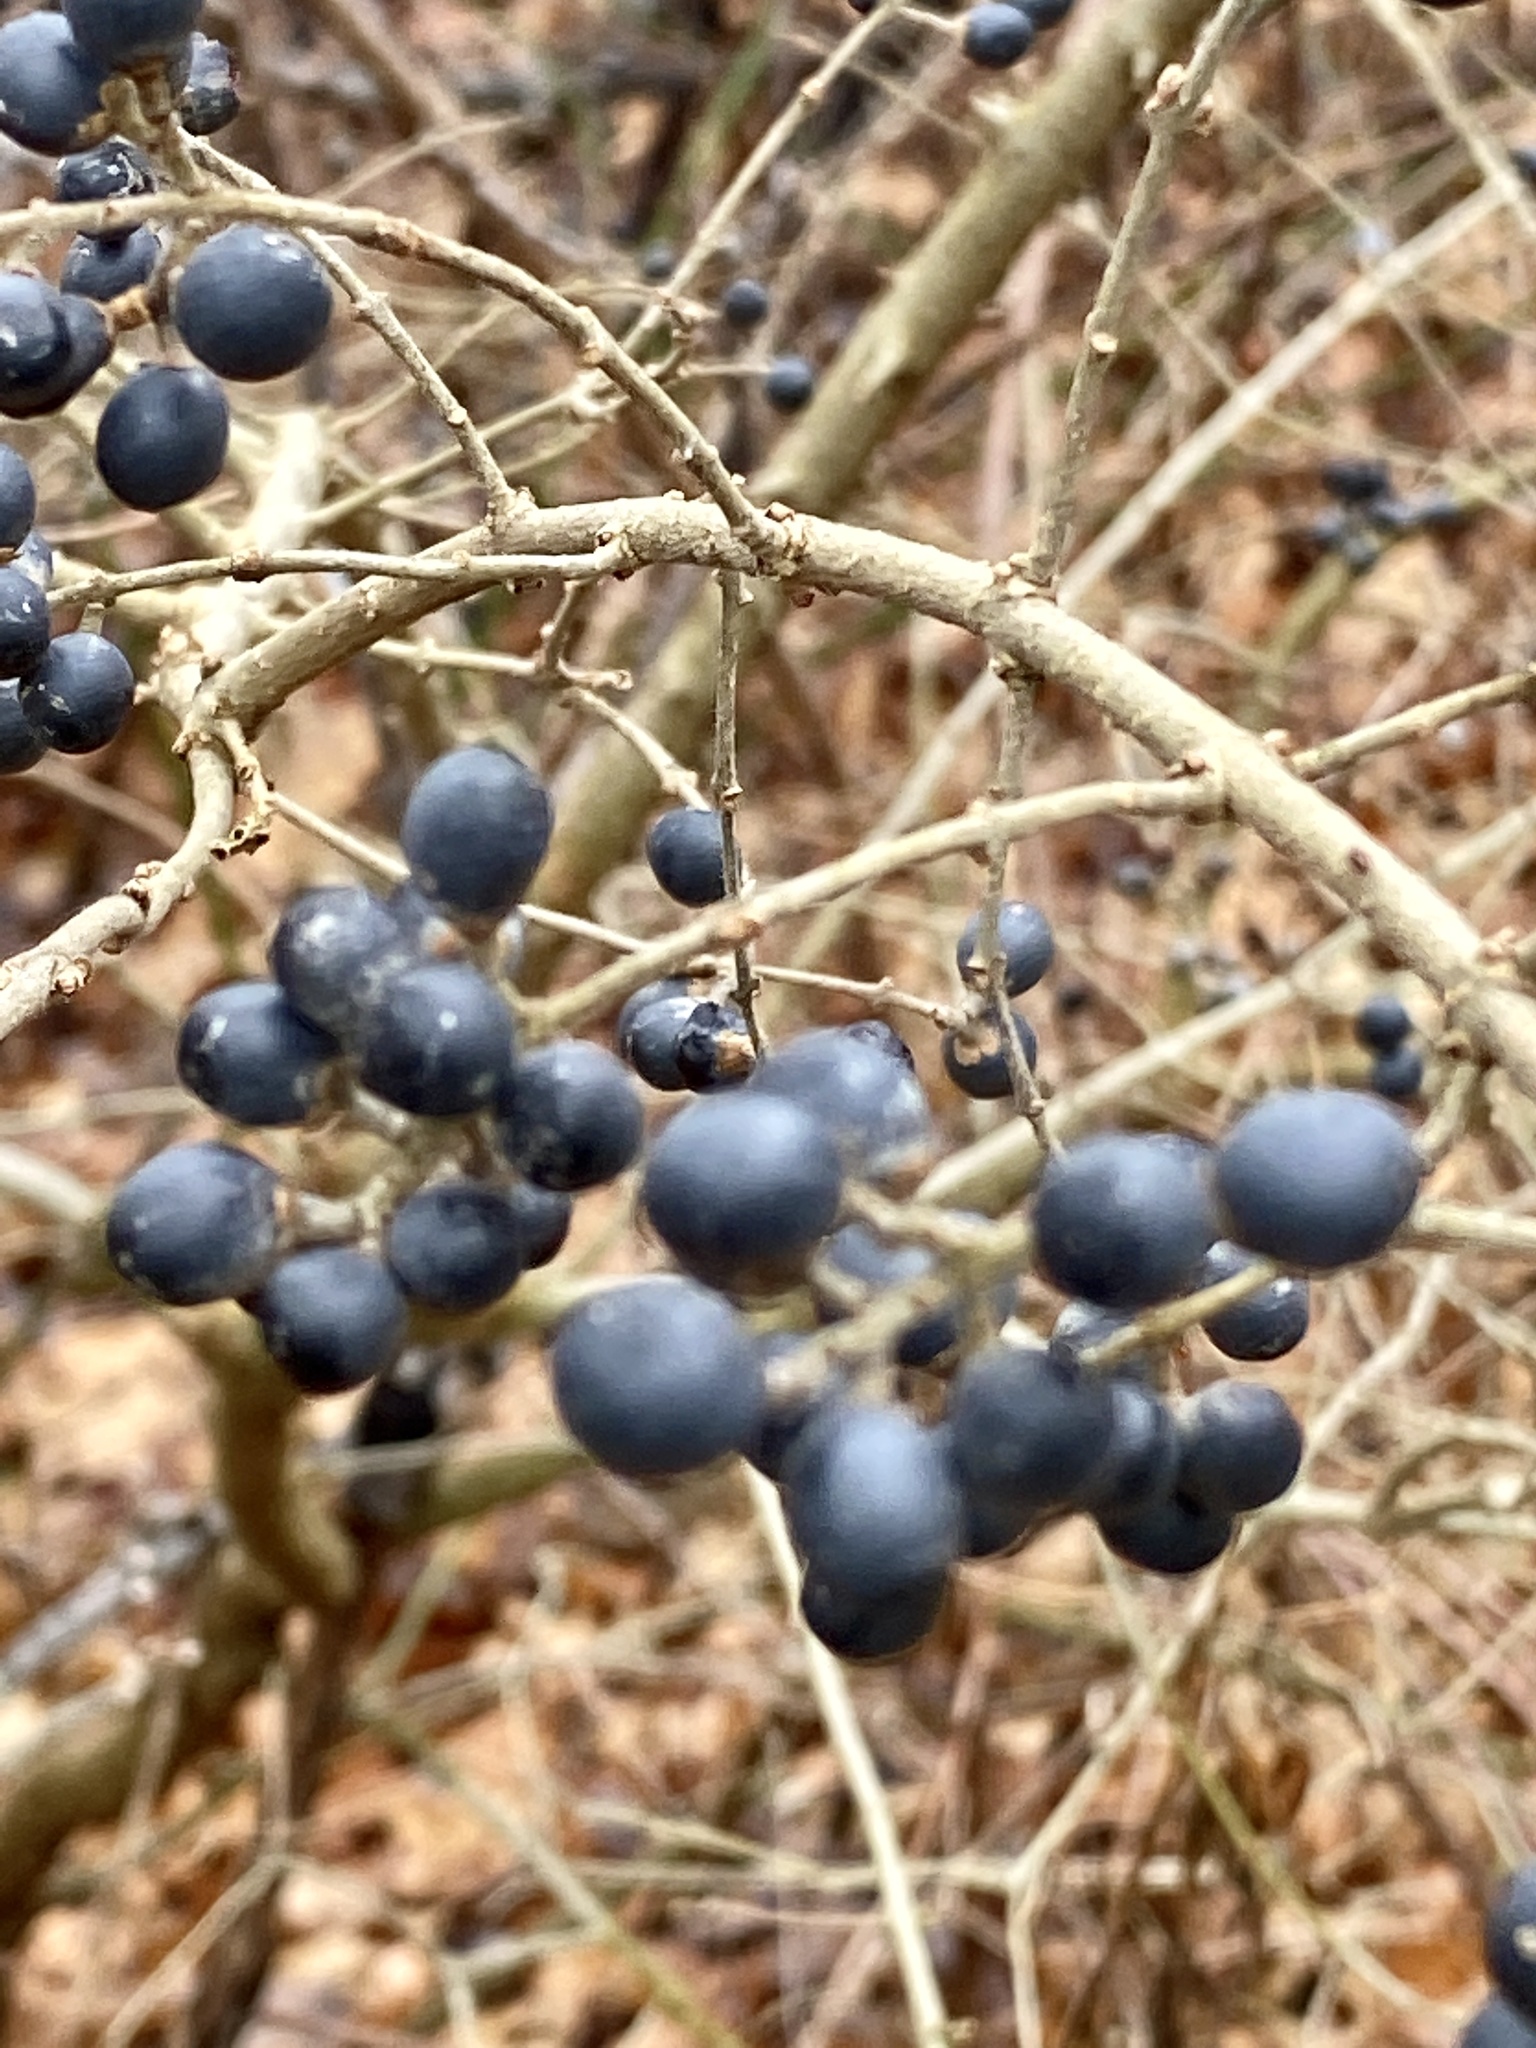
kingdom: Plantae
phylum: Tracheophyta
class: Magnoliopsida
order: Lamiales
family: Oleaceae
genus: Ligustrum
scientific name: Ligustrum obtusifolium
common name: Border privet
